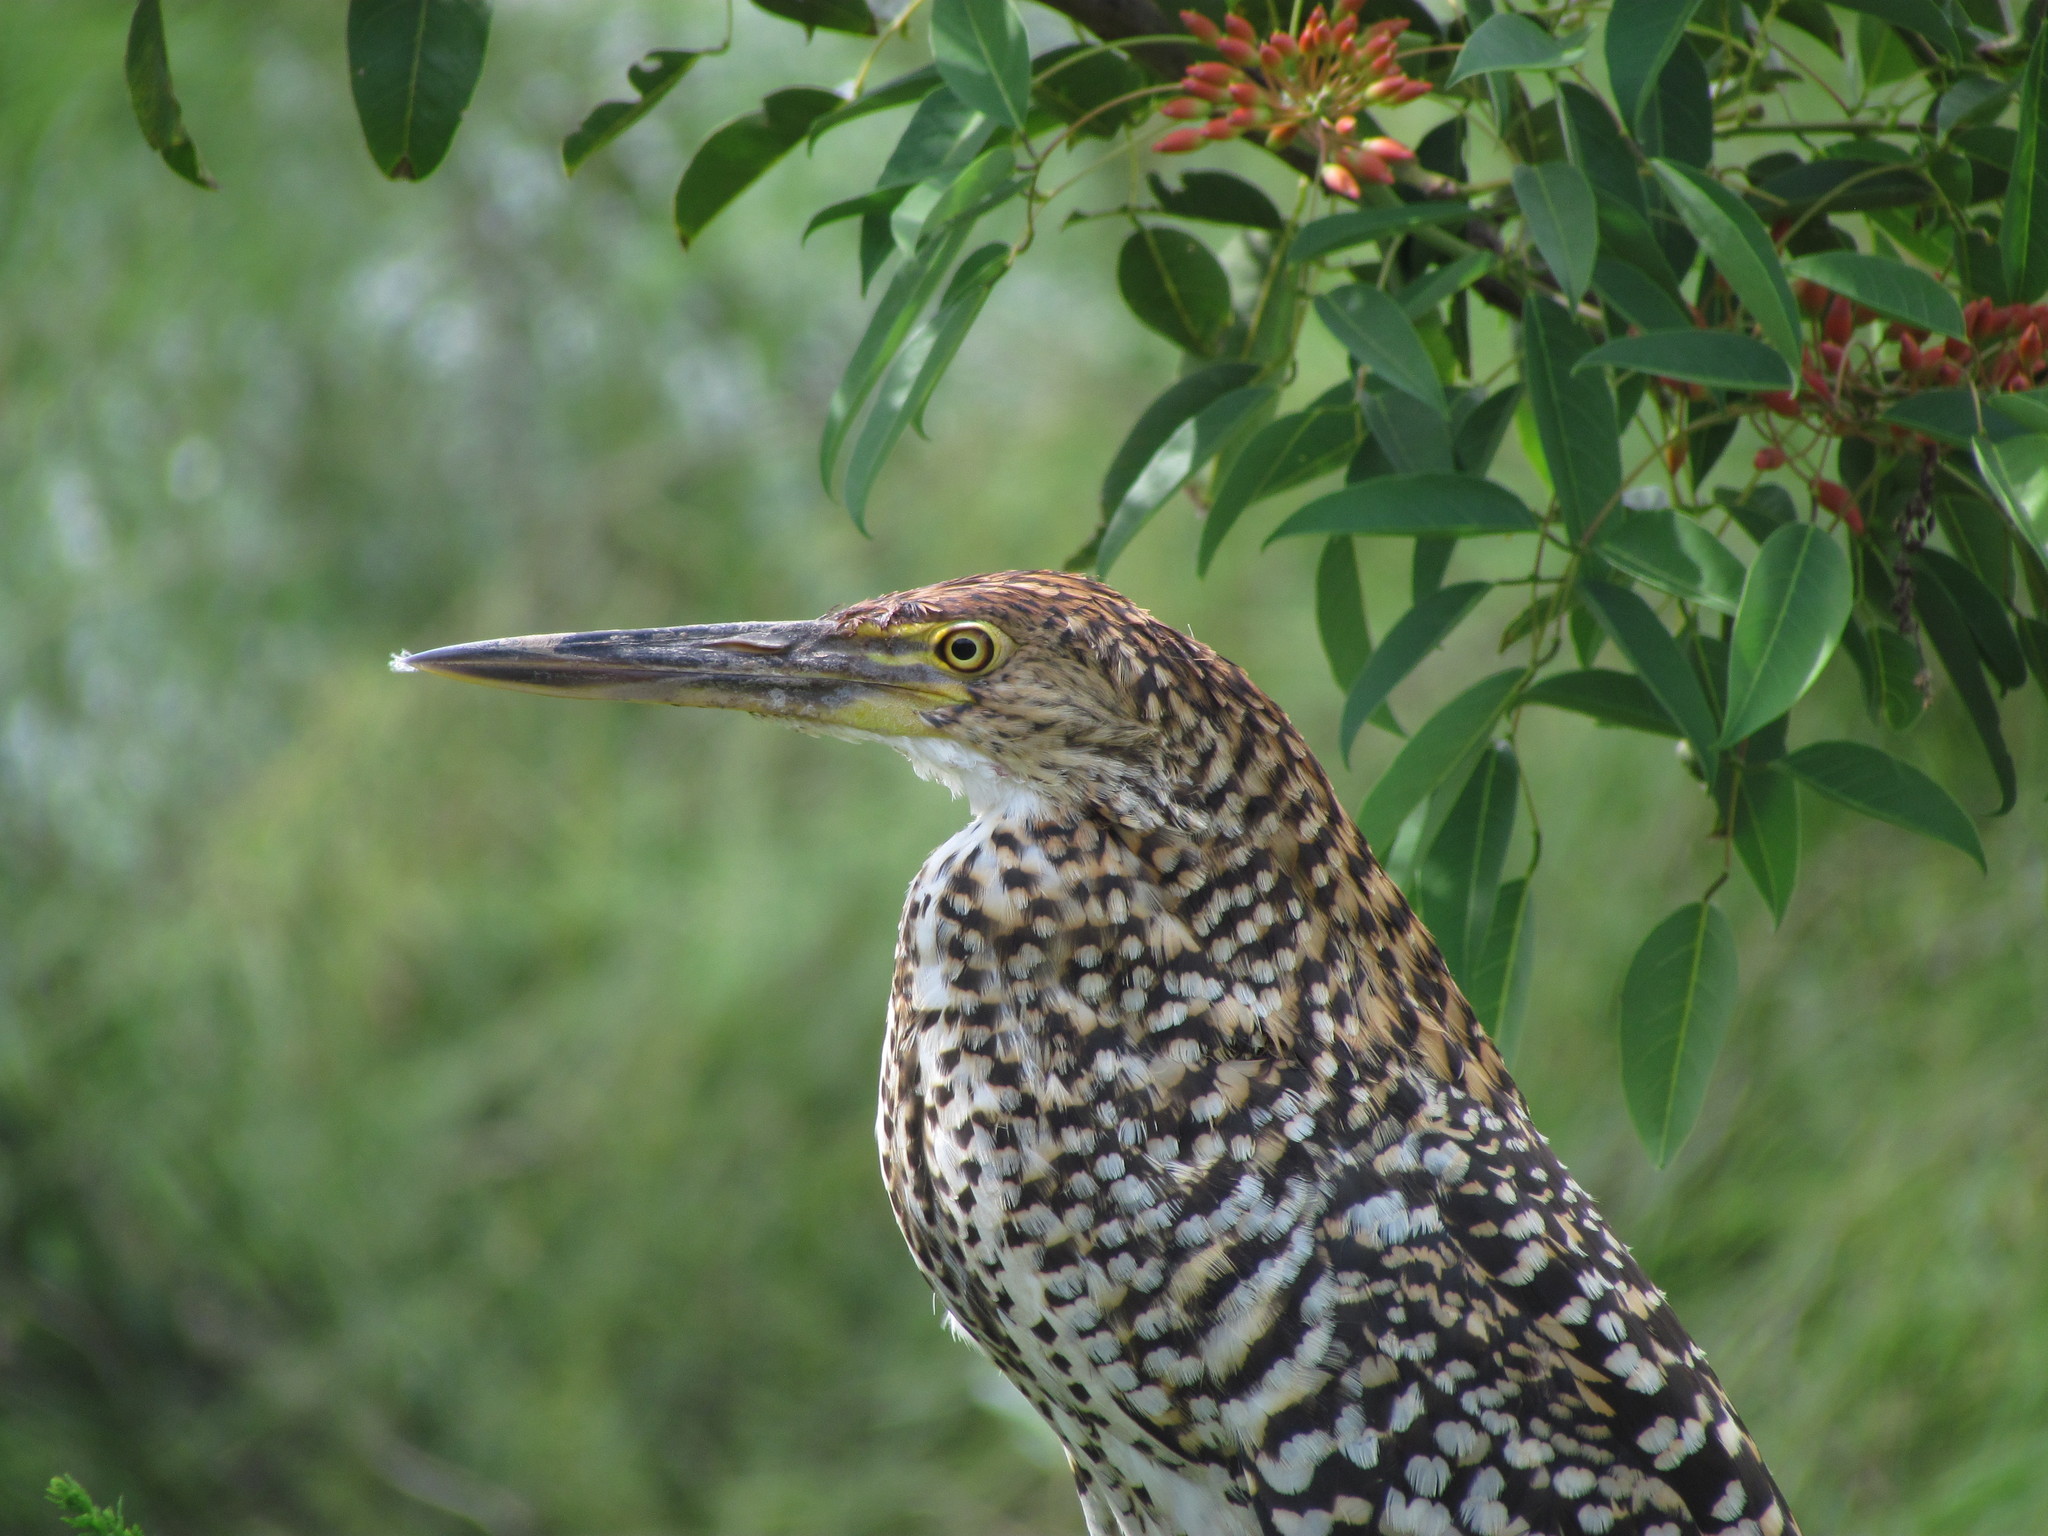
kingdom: Animalia
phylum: Chordata
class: Aves
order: Pelecaniformes
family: Ardeidae
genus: Tigrisoma
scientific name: Tigrisoma lineatum
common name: Rufescent tiger-heron
